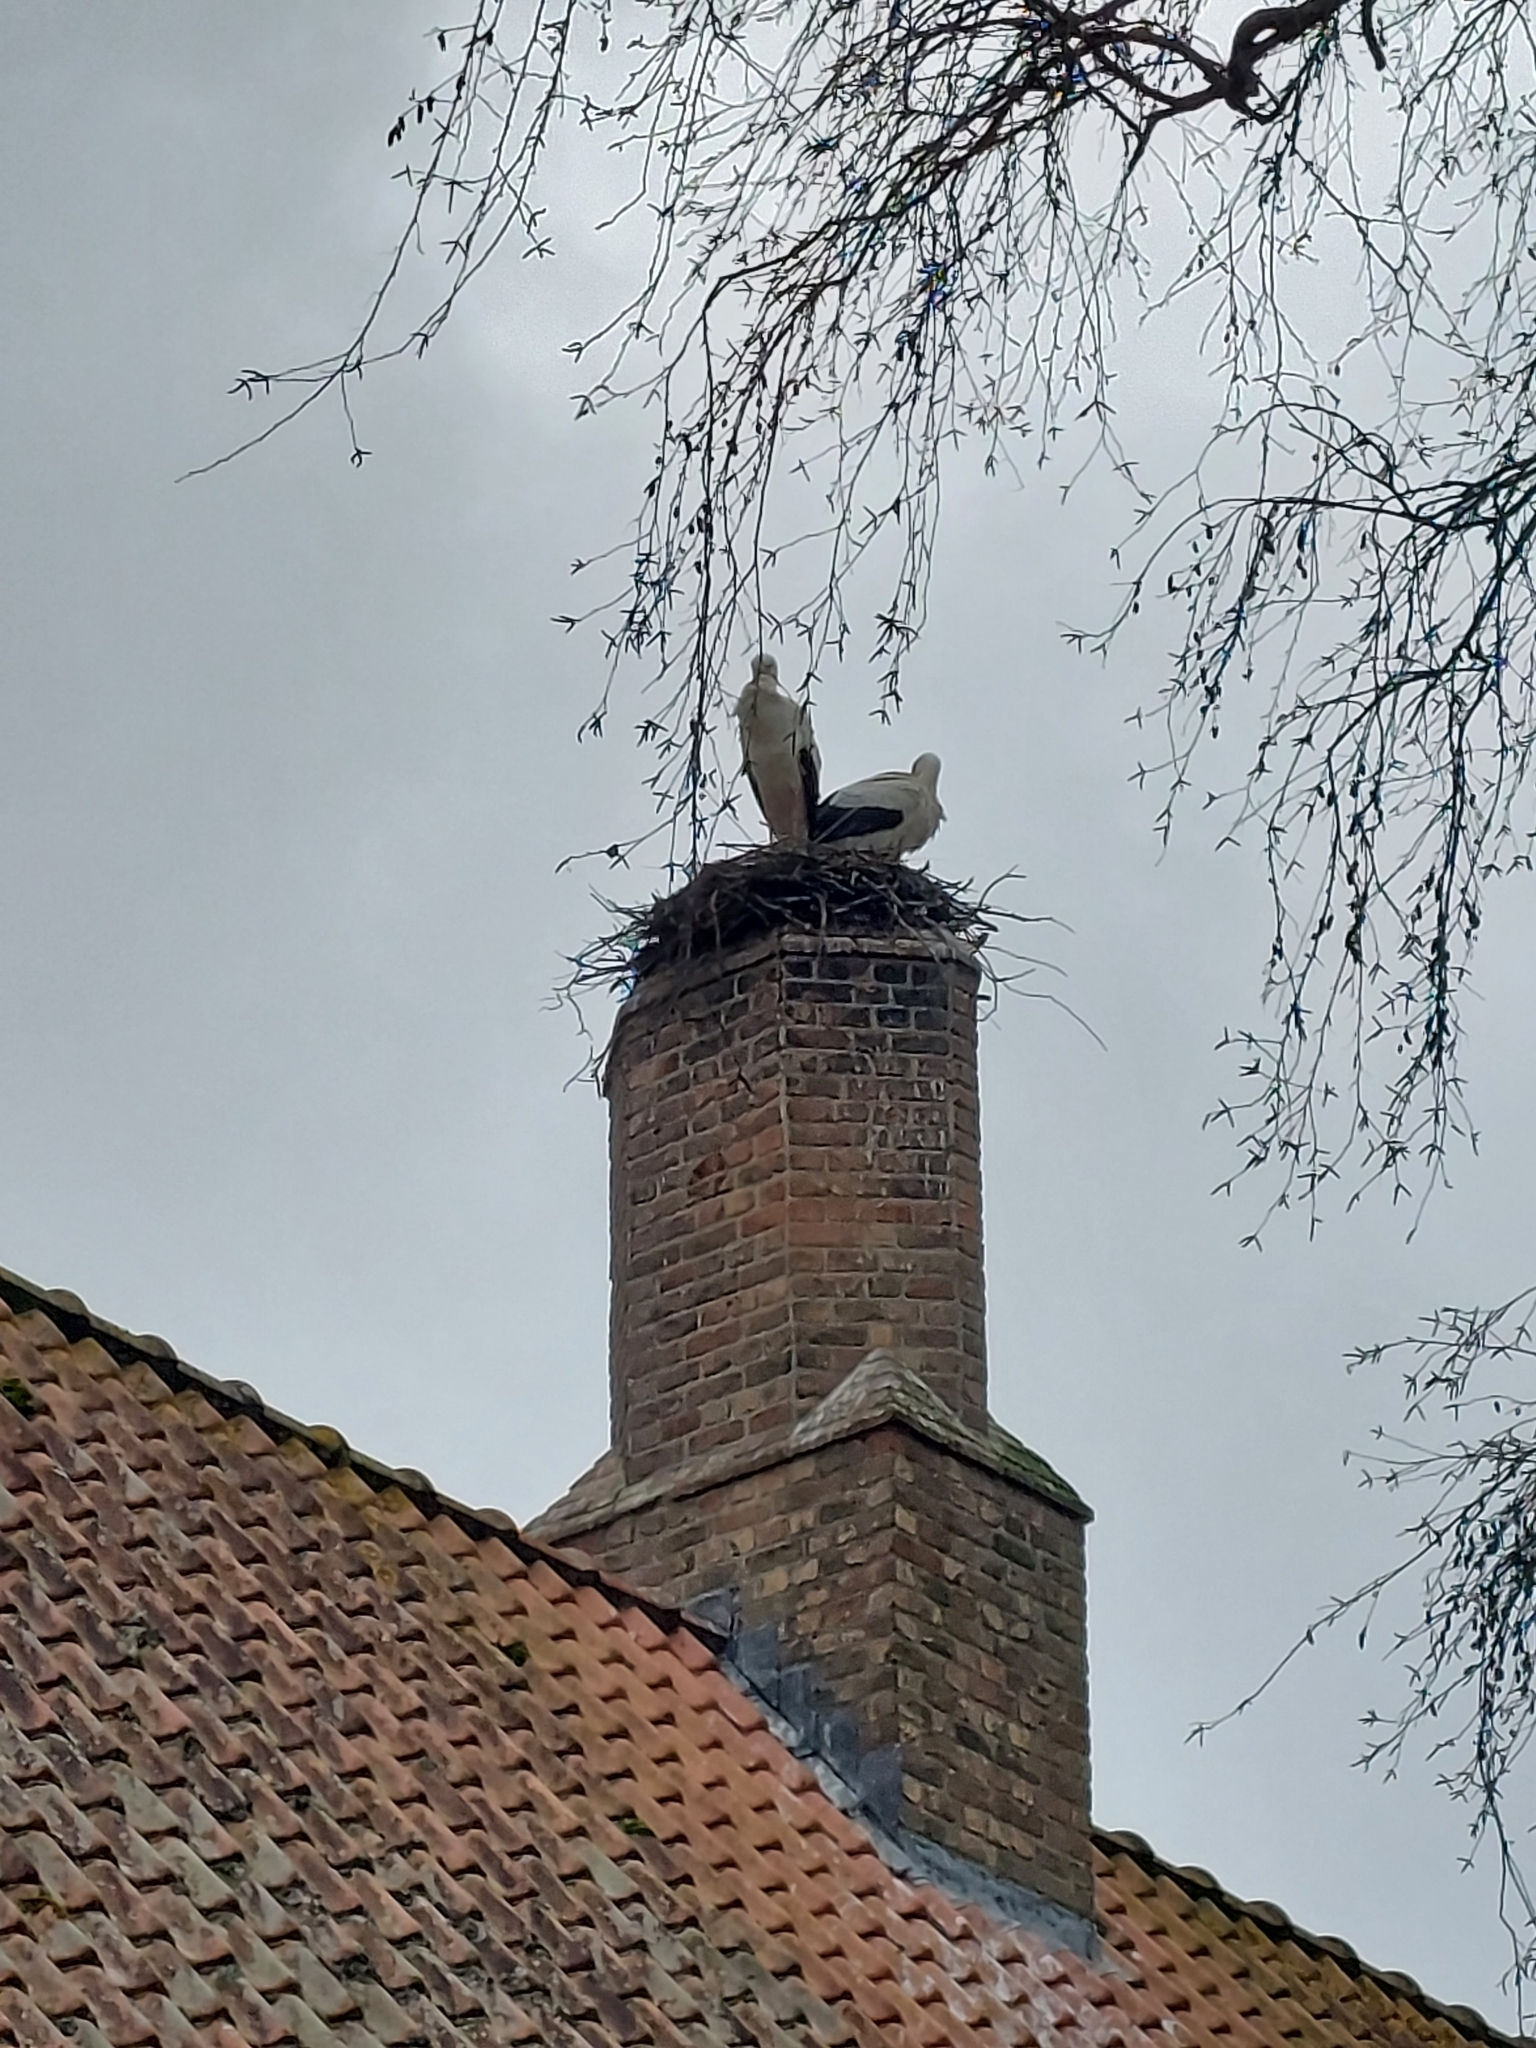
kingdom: Animalia
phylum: Chordata
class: Aves
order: Ciconiiformes
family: Ciconiidae
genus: Ciconia
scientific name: Ciconia ciconia
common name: White stork
